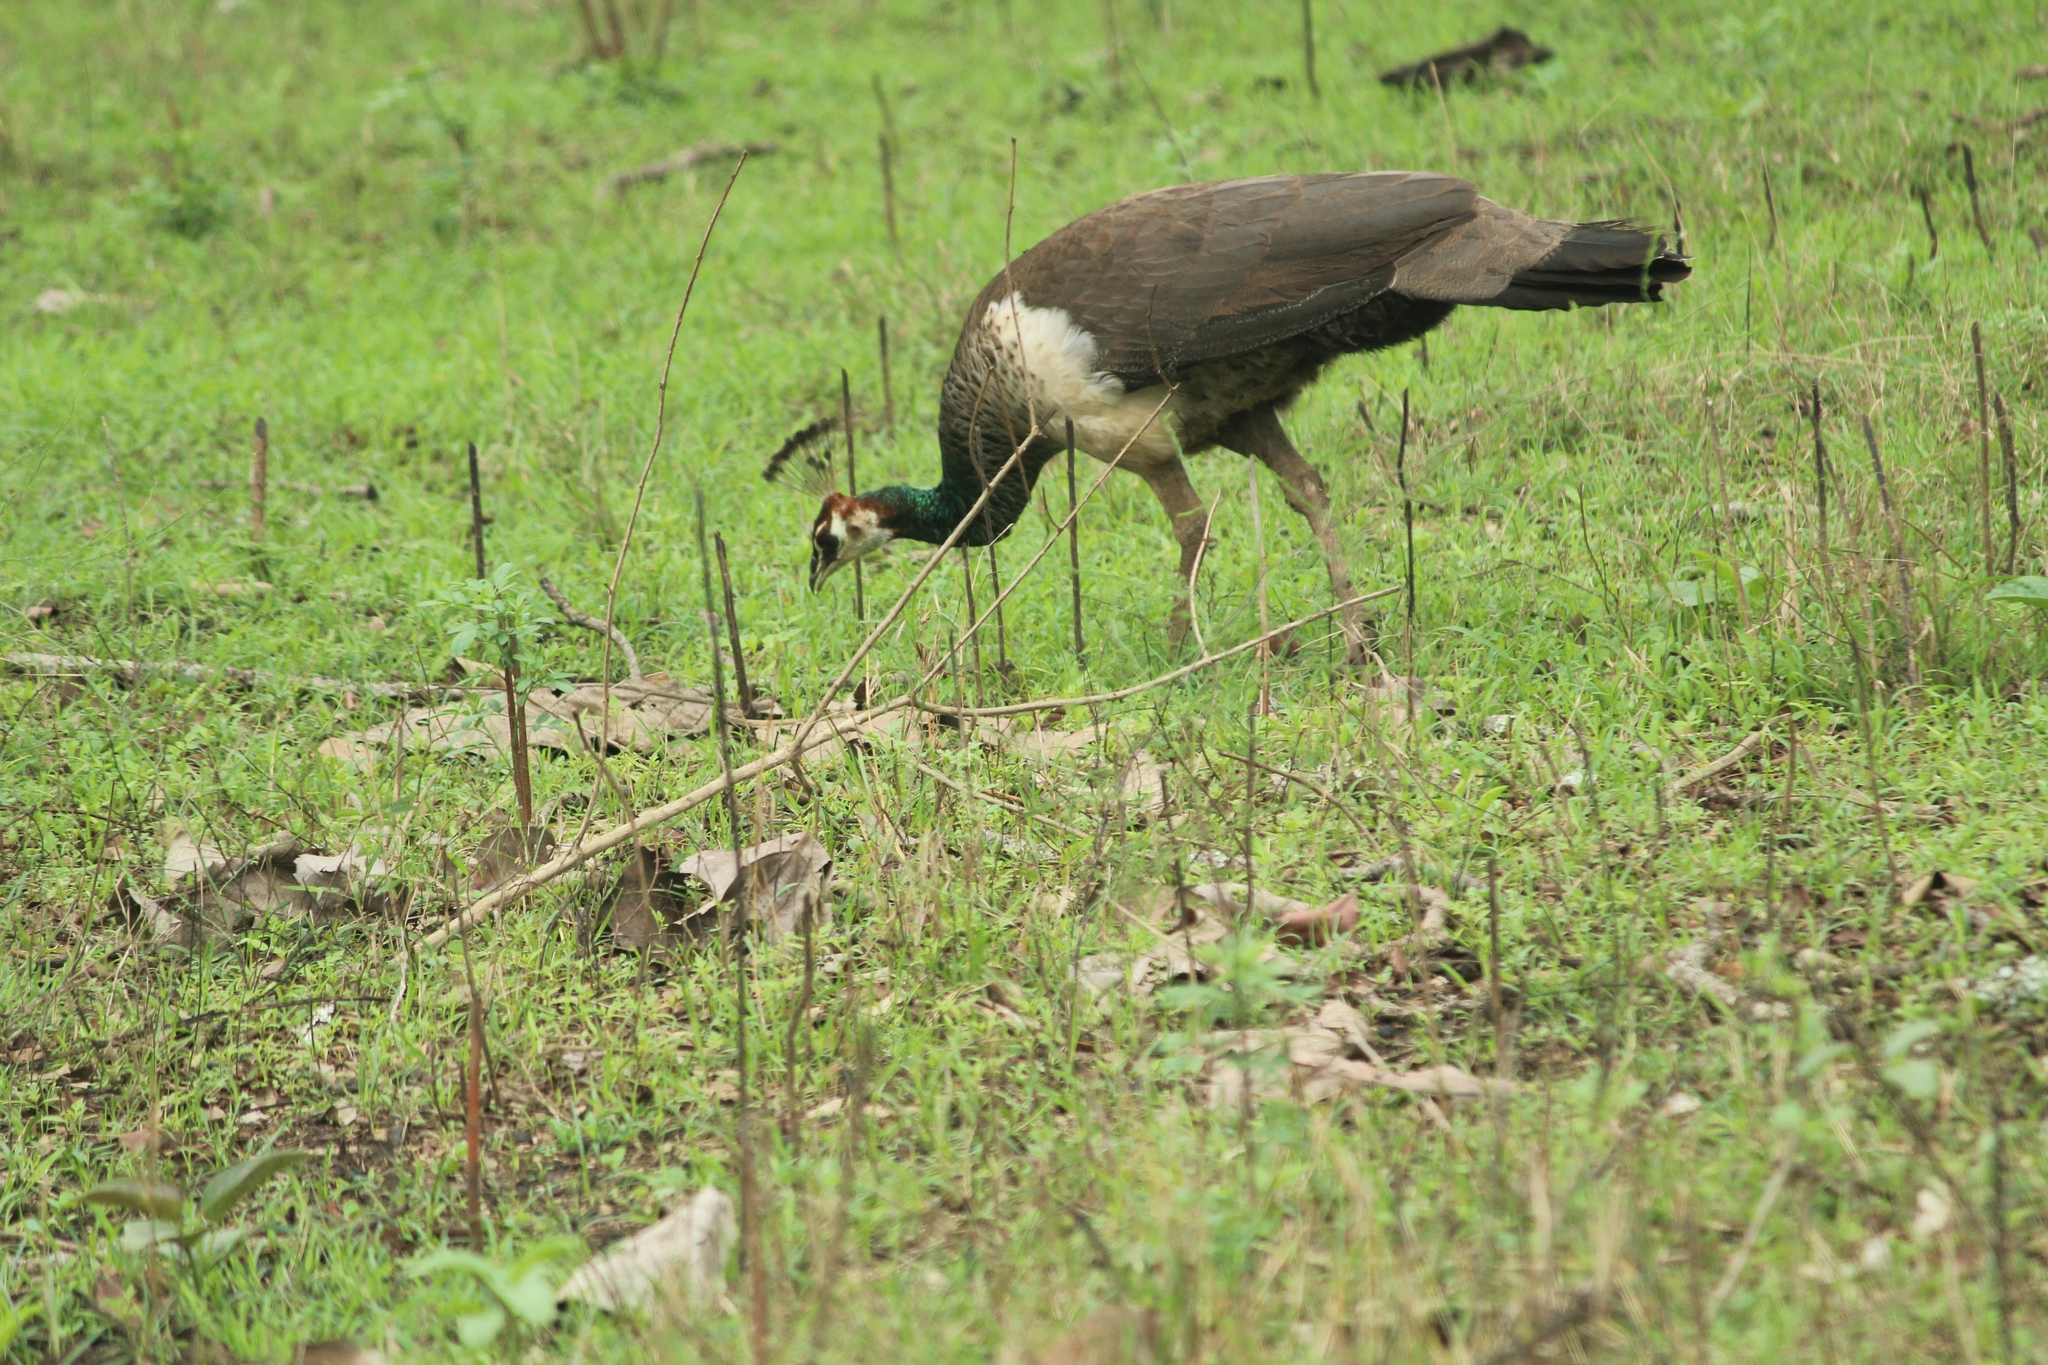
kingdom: Animalia
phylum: Chordata
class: Aves
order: Galliformes
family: Phasianidae
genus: Pavo
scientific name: Pavo cristatus
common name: Indian peafowl
